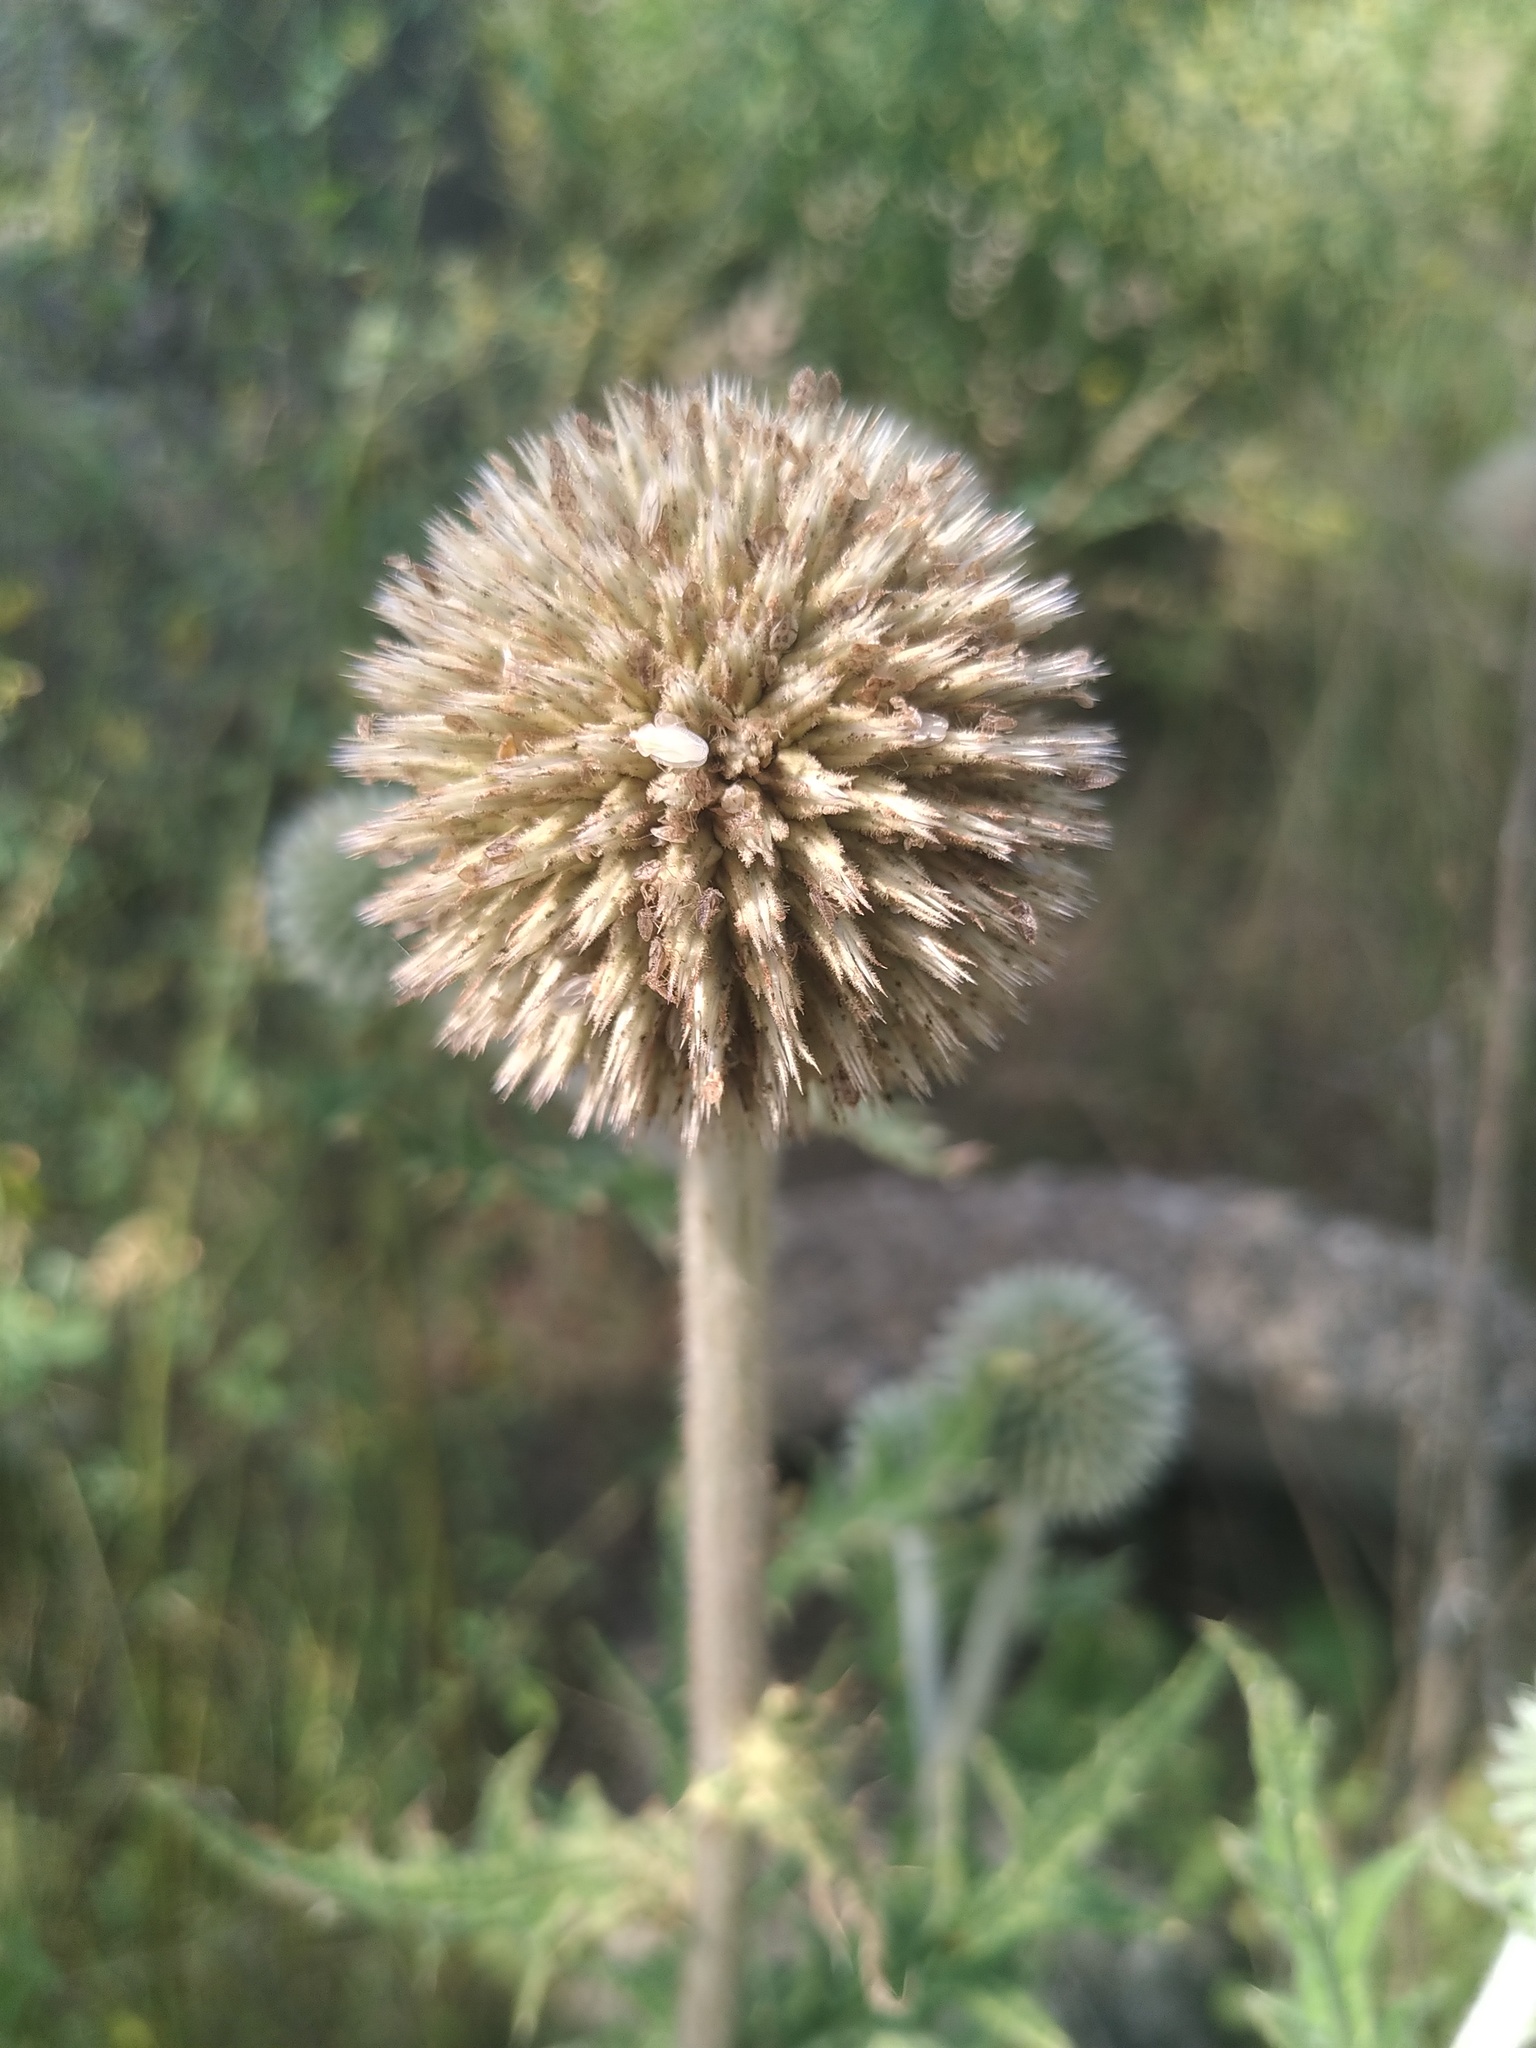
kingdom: Plantae
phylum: Tracheophyta
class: Magnoliopsida
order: Asterales
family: Asteraceae
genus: Echinops
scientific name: Echinops sphaerocephalus
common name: Glandular globe-thistle
